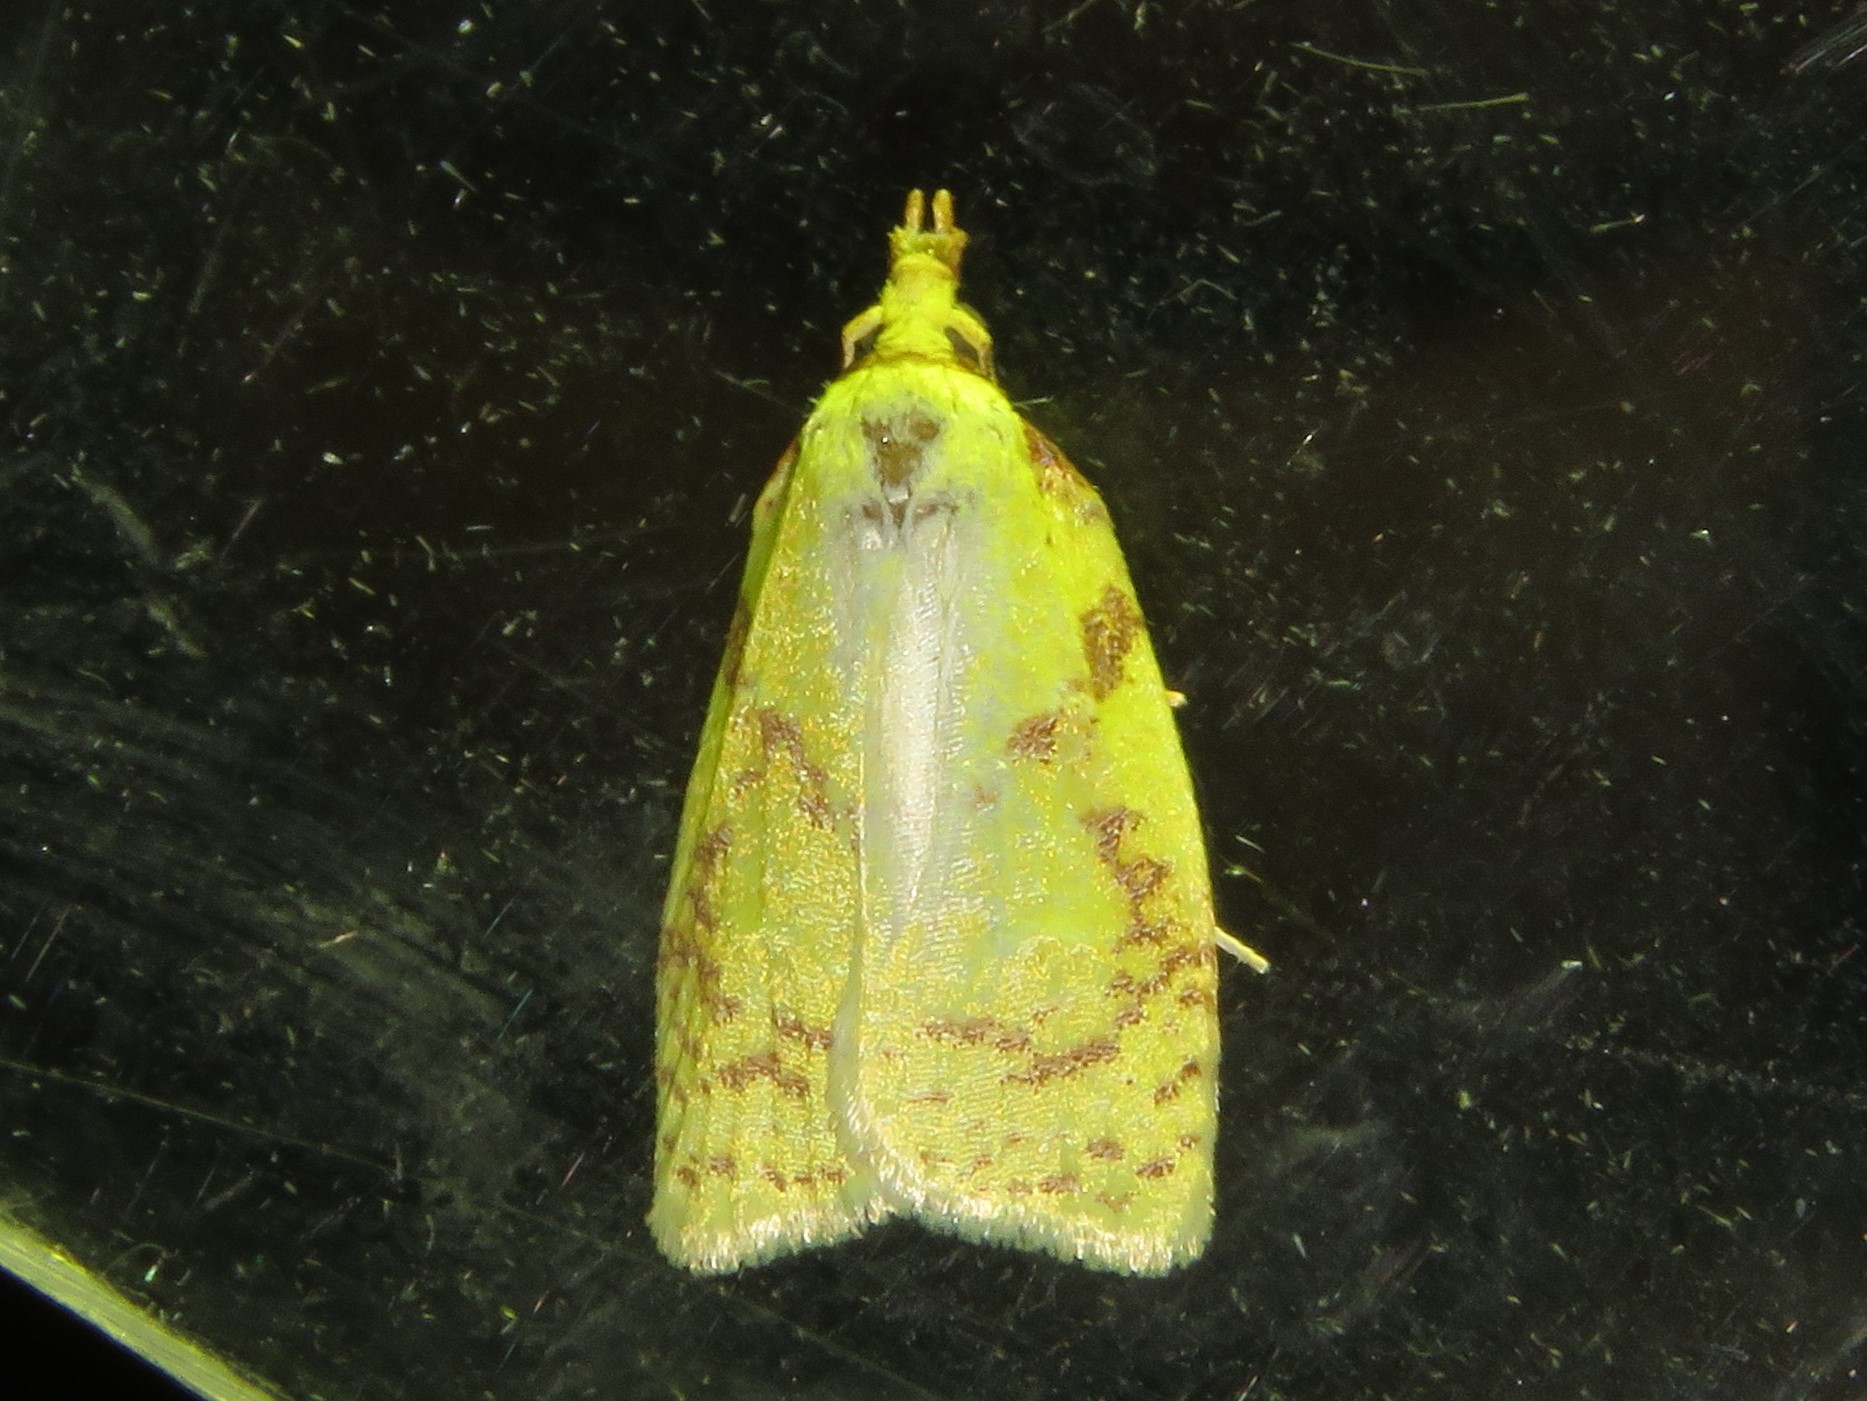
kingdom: Animalia
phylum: Arthropoda
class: Insecta
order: Lepidoptera
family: Tortricidae
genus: Cenopis
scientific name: Cenopis pettitana
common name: Maple-basswood leafroller moth
